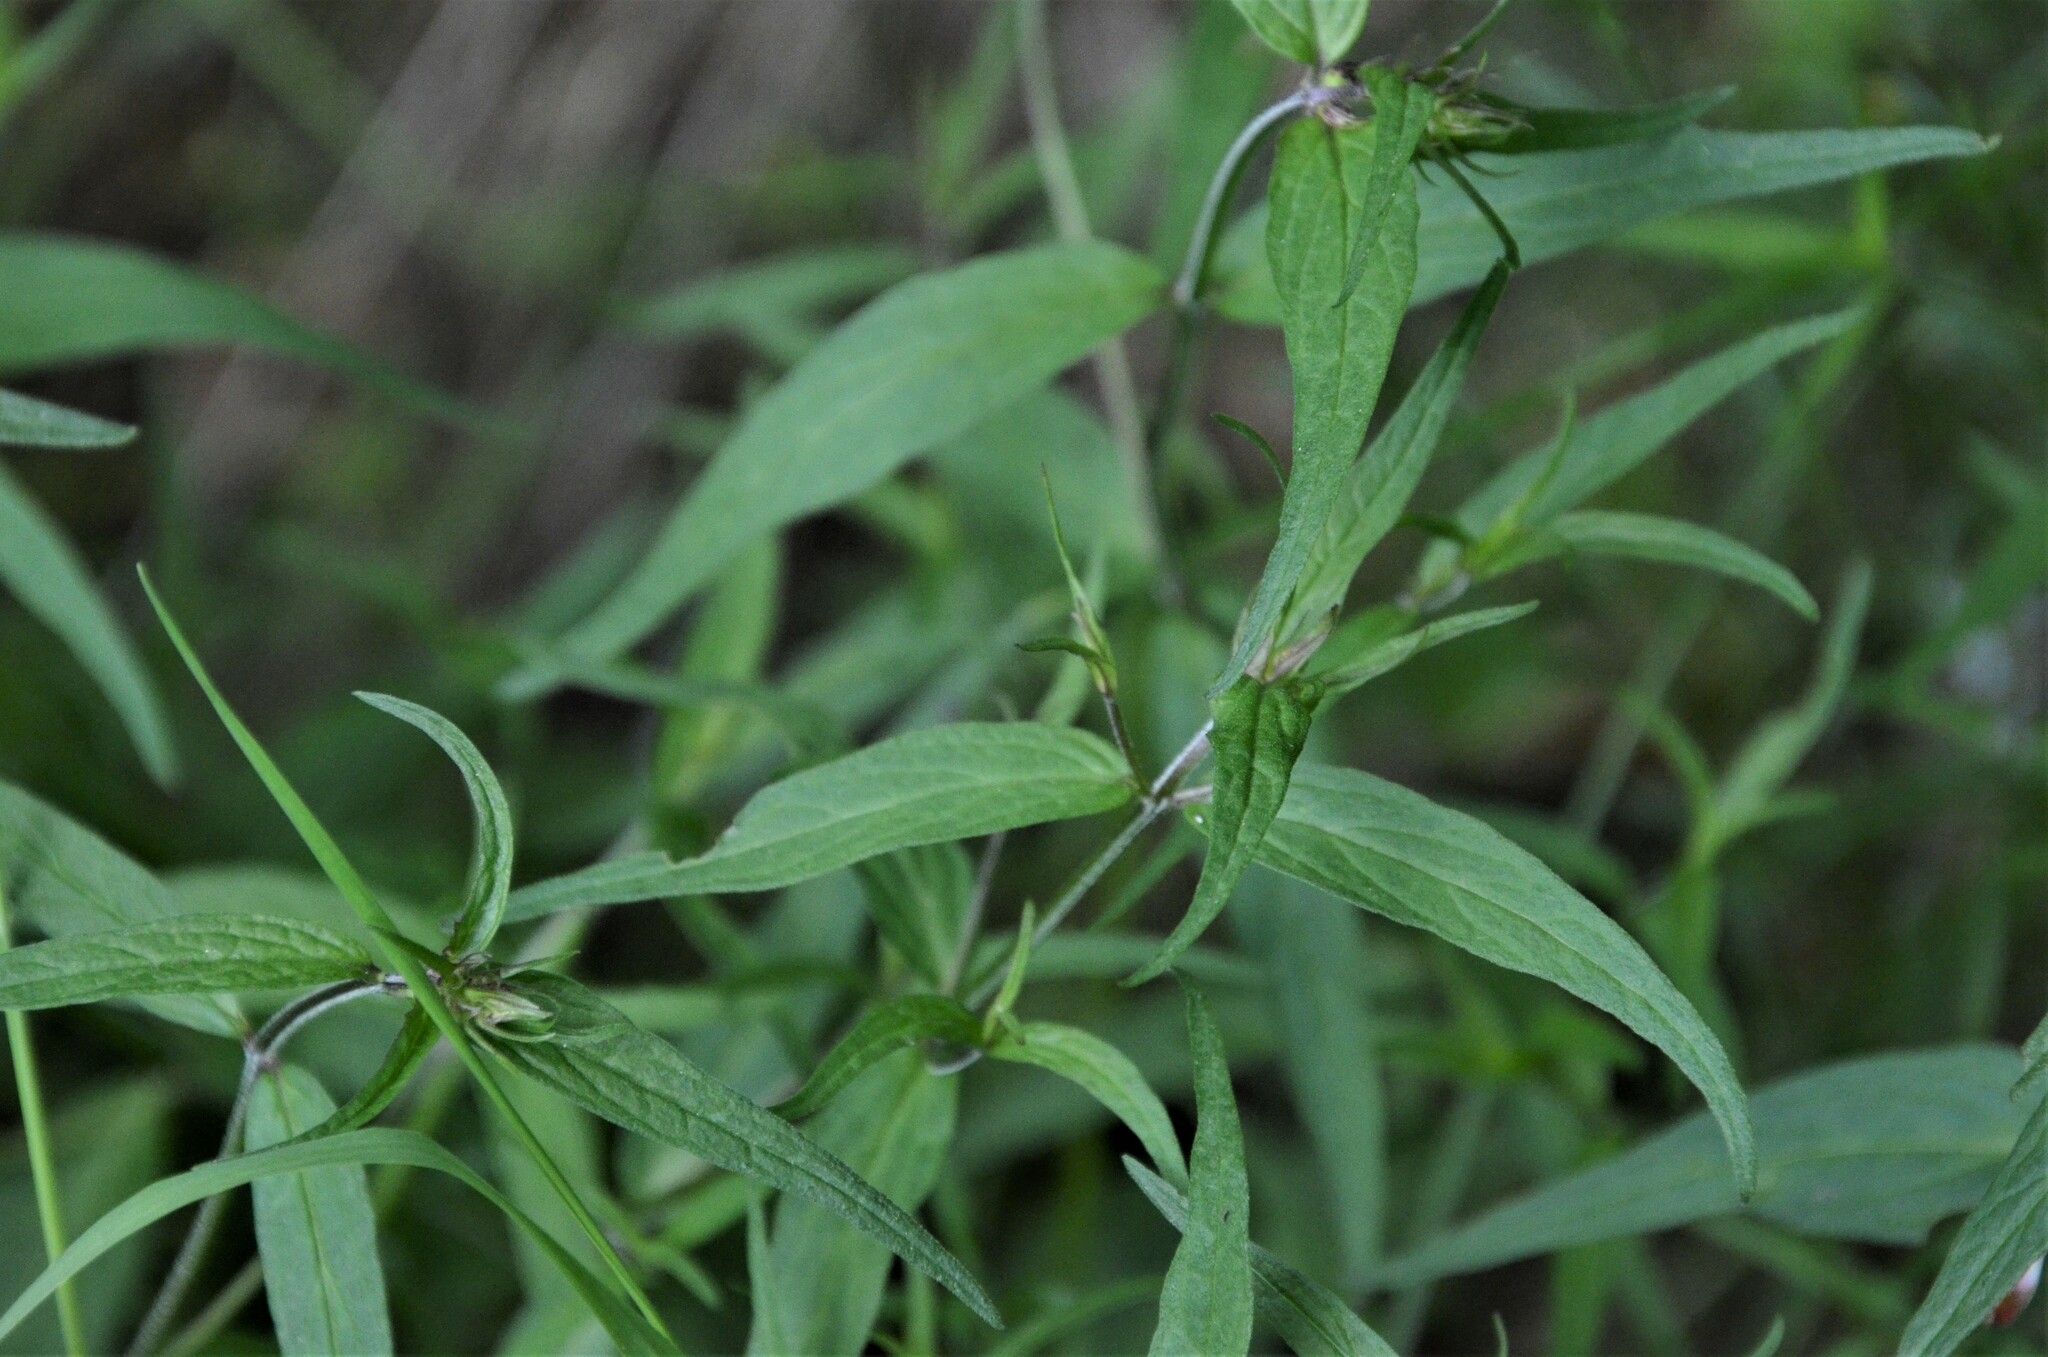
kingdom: Plantae
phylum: Tracheophyta
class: Magnoliopsida
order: Lamiales
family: Orobanchaceae
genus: Melampyrum
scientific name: Melampyrum pratense
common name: Common cow-wheat
